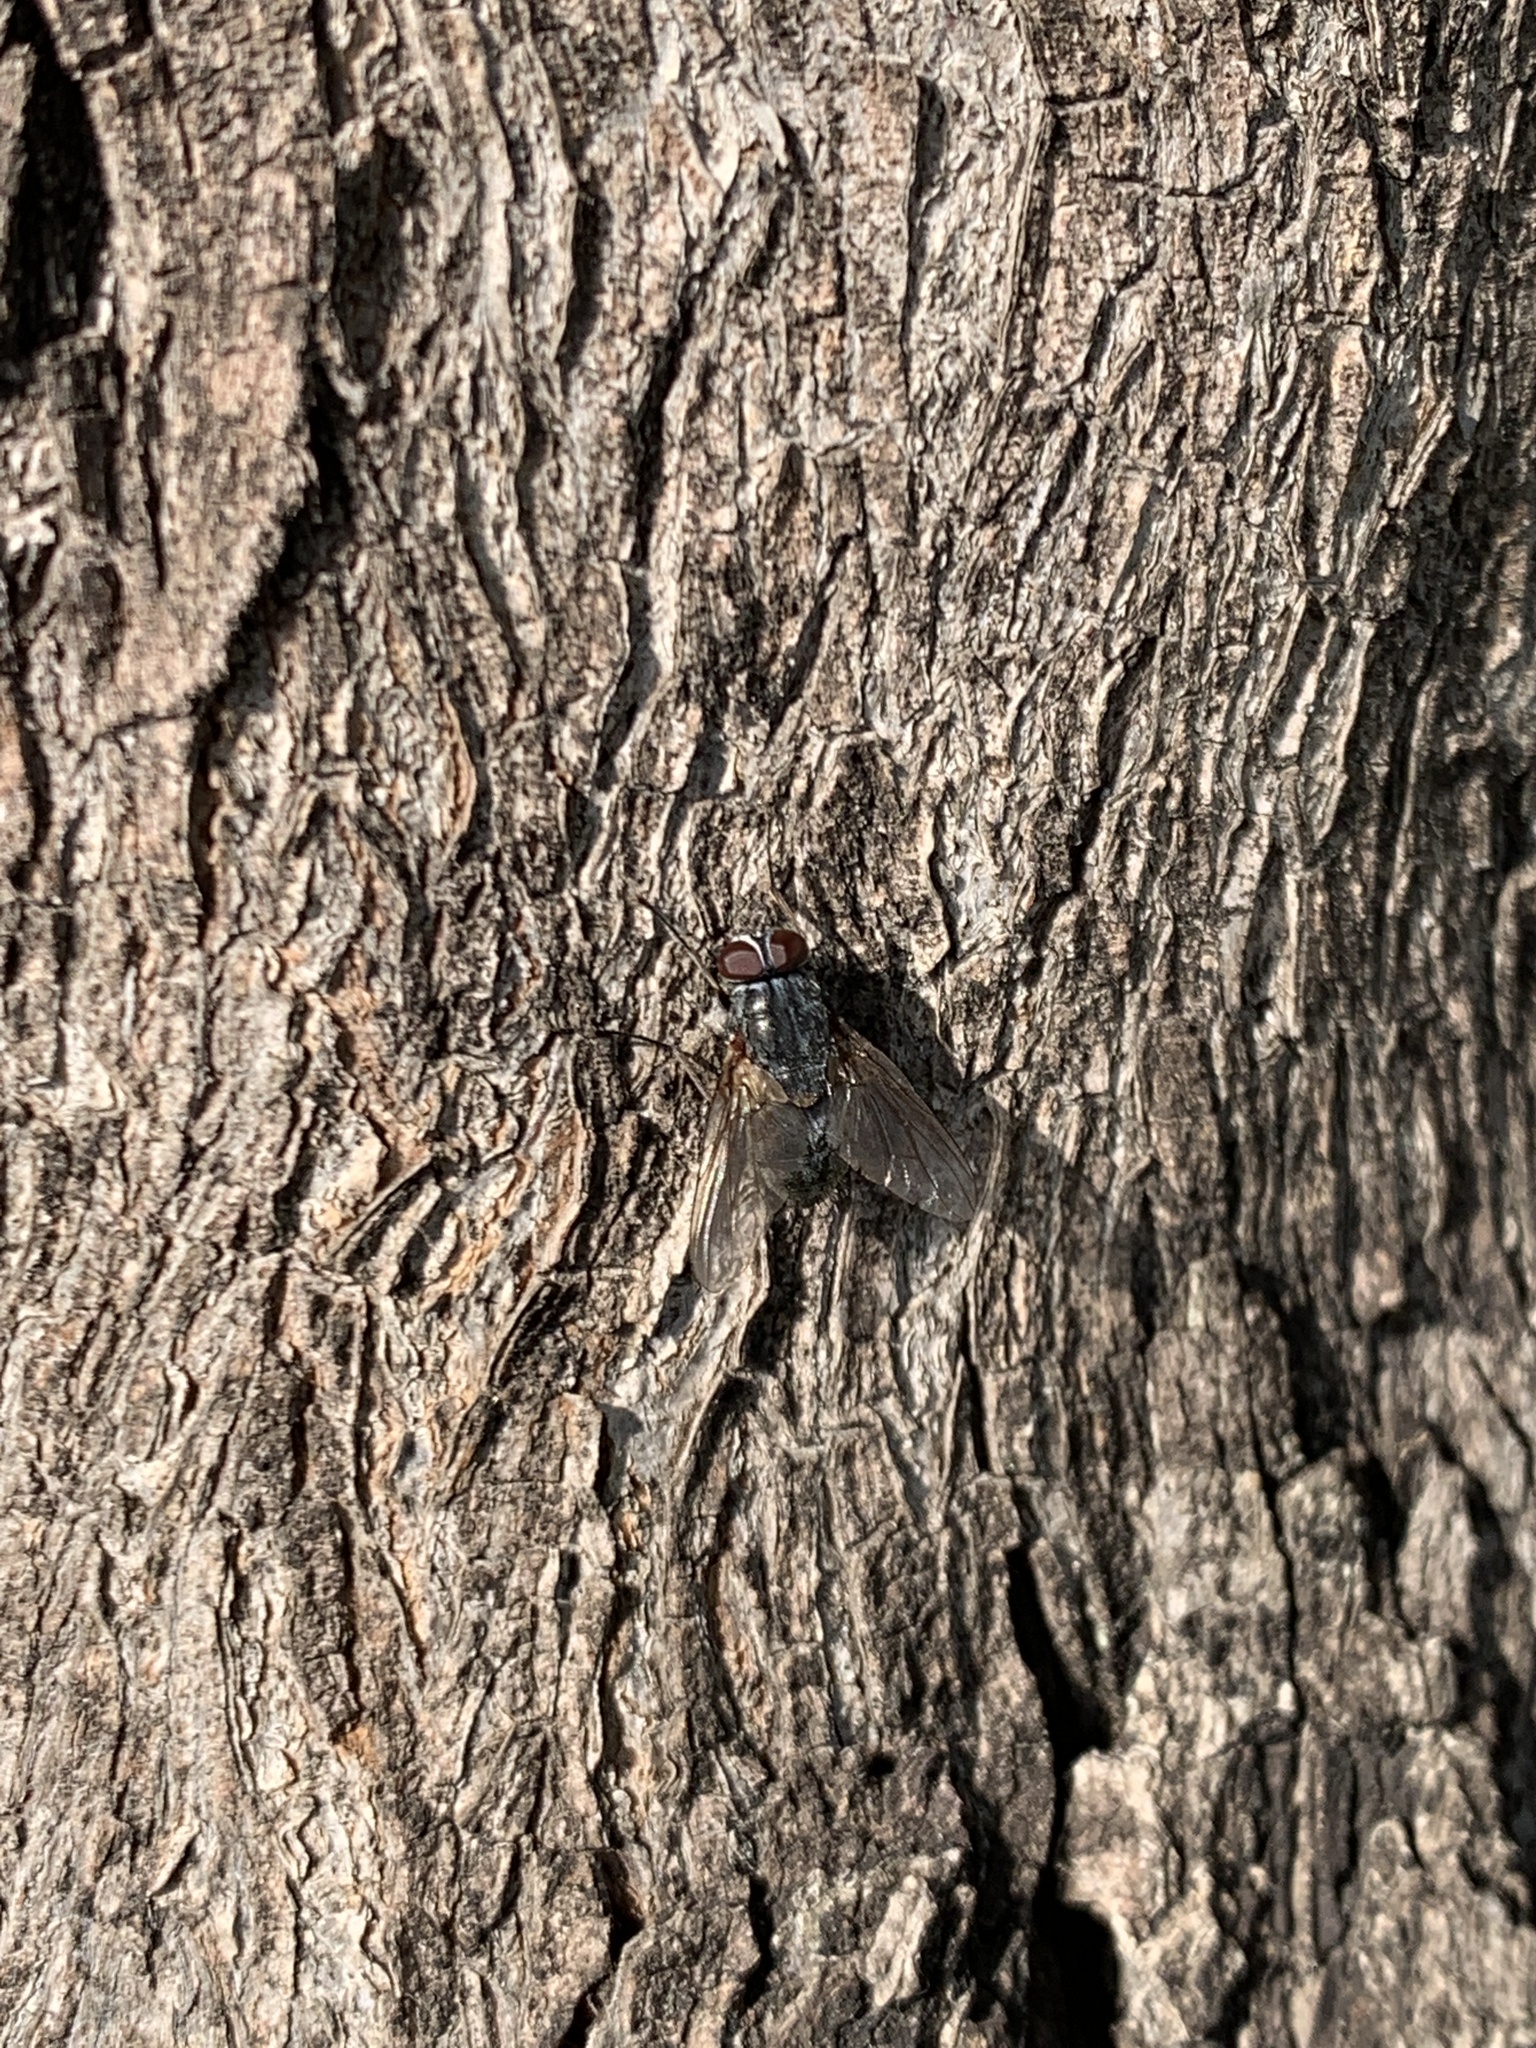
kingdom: Animalia
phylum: Arthropoda
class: Insecta
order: Diptera
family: Muscidae
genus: Muscina
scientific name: Muscina stabulans
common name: False stable fly
